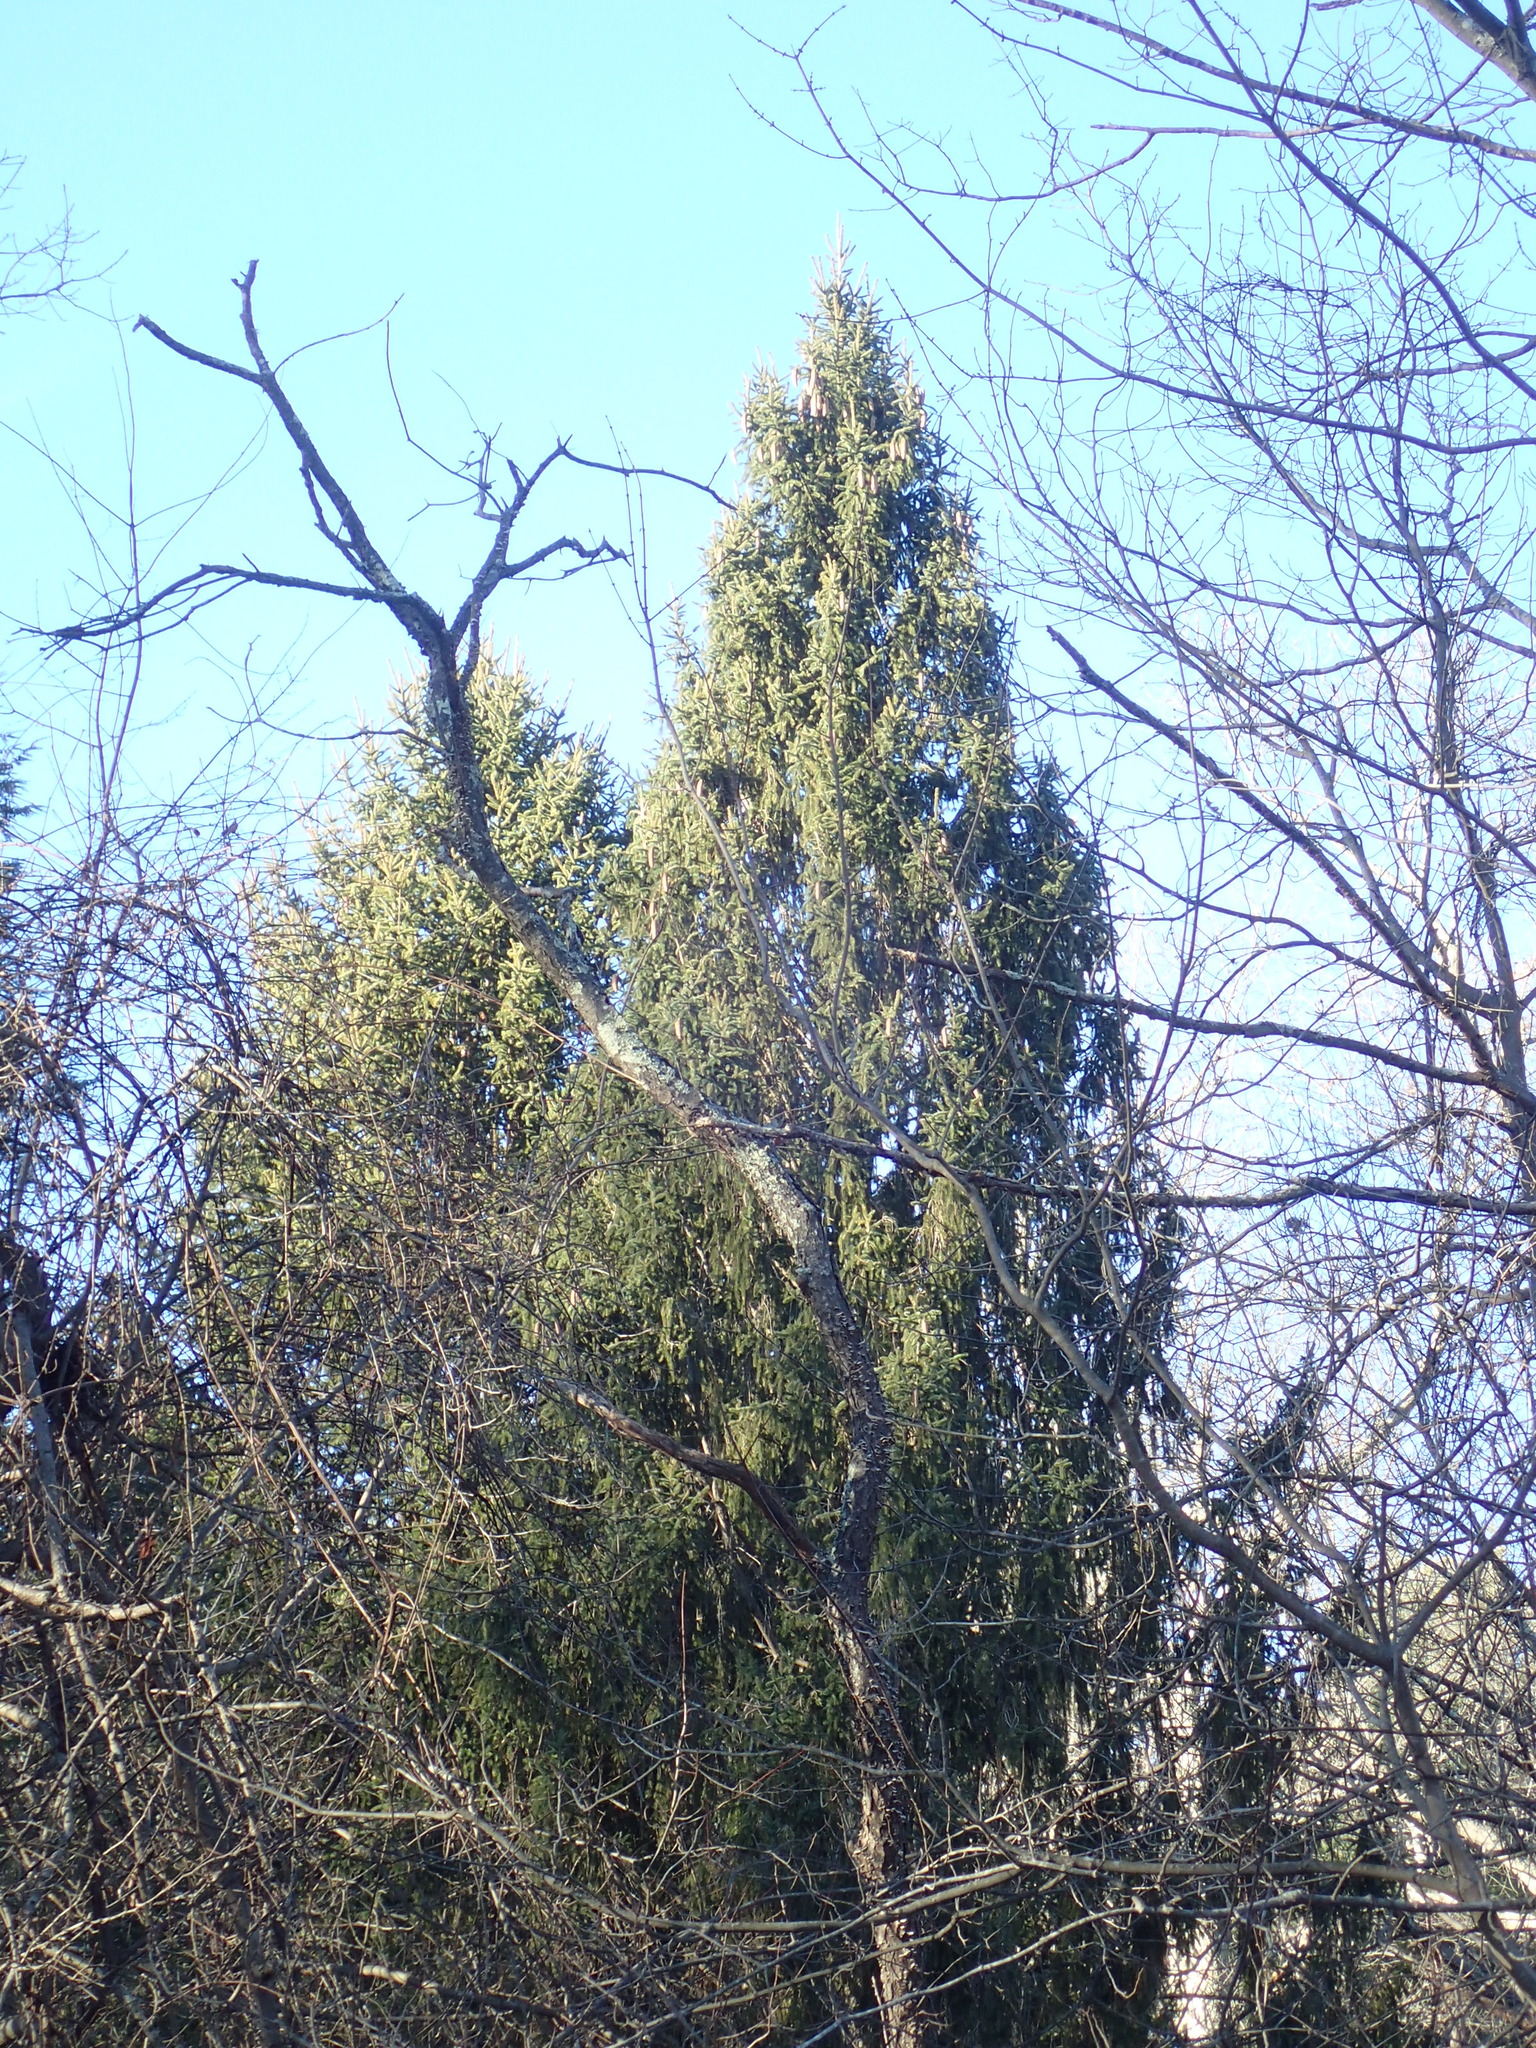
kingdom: Plantae
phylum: Tracheophyta
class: Pinopsida
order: Pinales
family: Pinaceae
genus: Picea
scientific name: Picea abies
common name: Norway spruce
